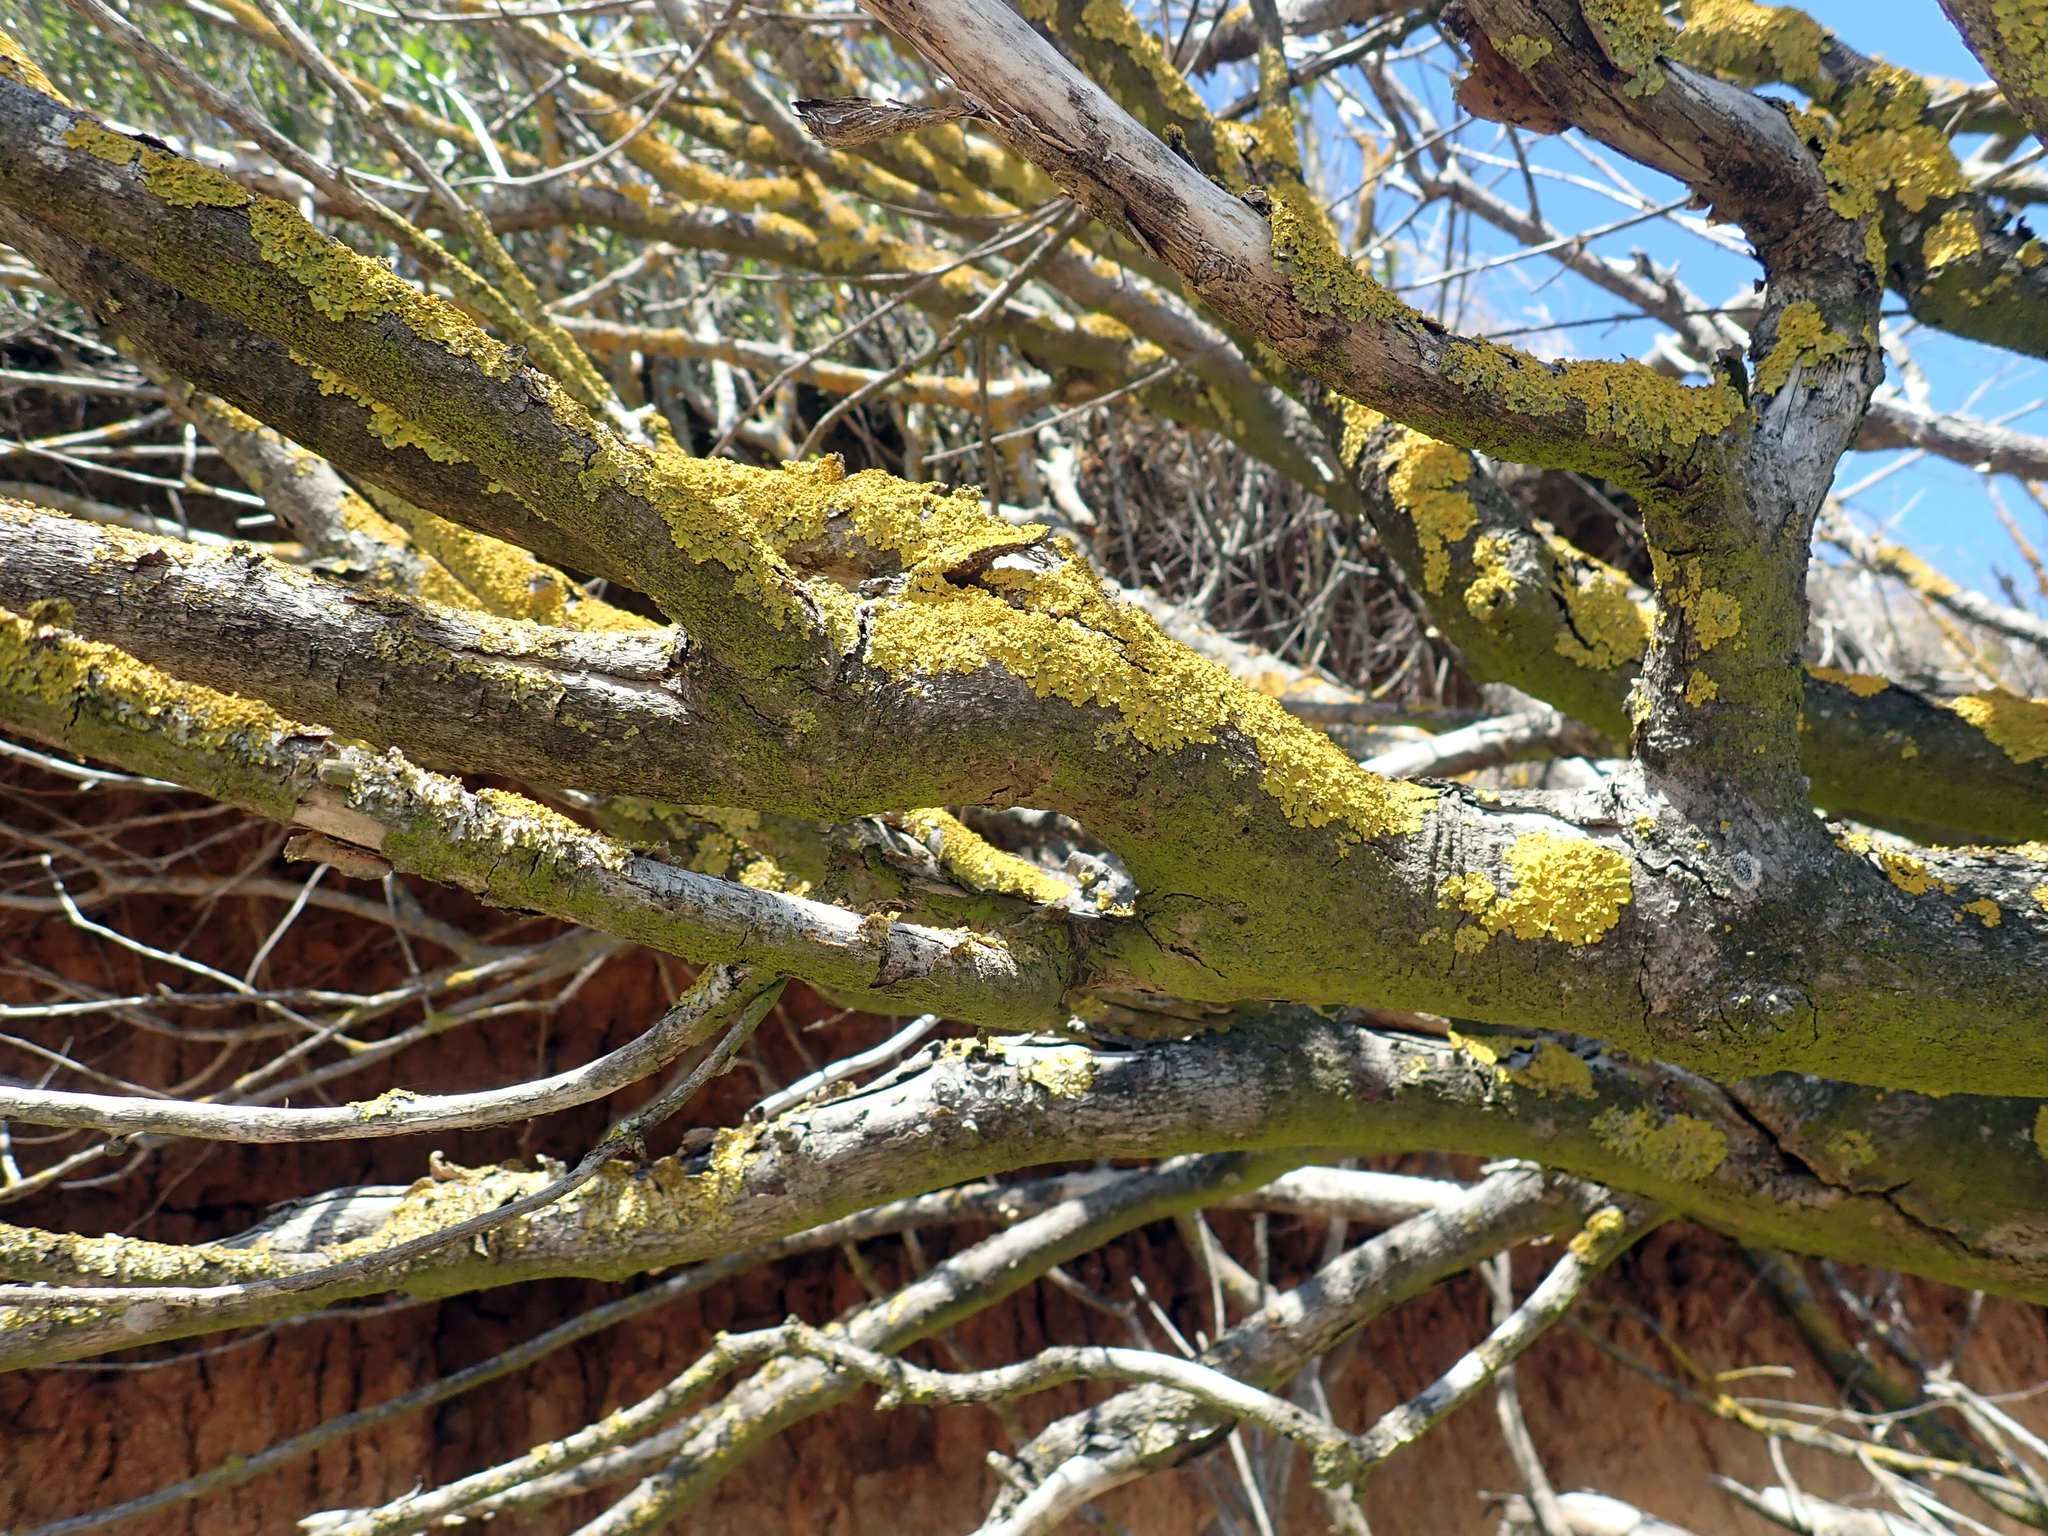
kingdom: Fungi
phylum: Ascomycota
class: Lecanoromycetes
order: Teloschistales
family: Teloschistaceae
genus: Xanthoria
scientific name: Xanthoria parietina
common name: Common orange lichen
